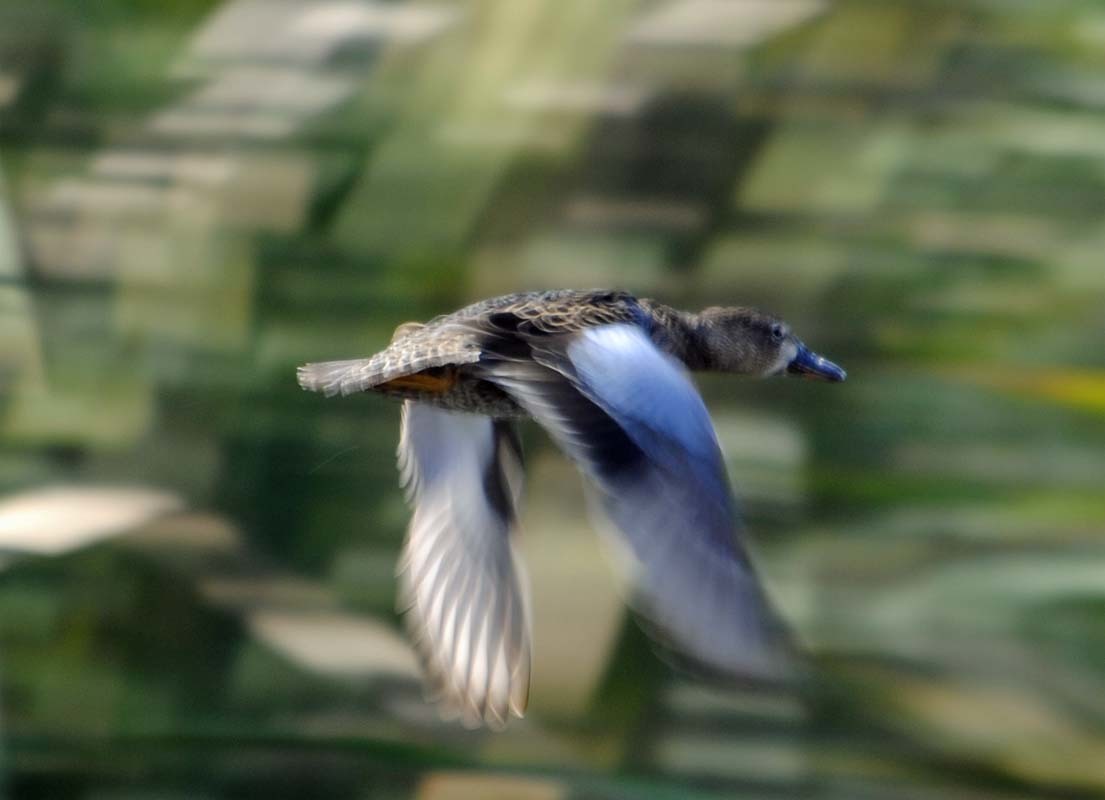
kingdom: Animalia
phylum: Chordata
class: Aves
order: Anseriformes
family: Anatidae
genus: Spatula
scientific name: Spatula discors
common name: Blue-winged teal
